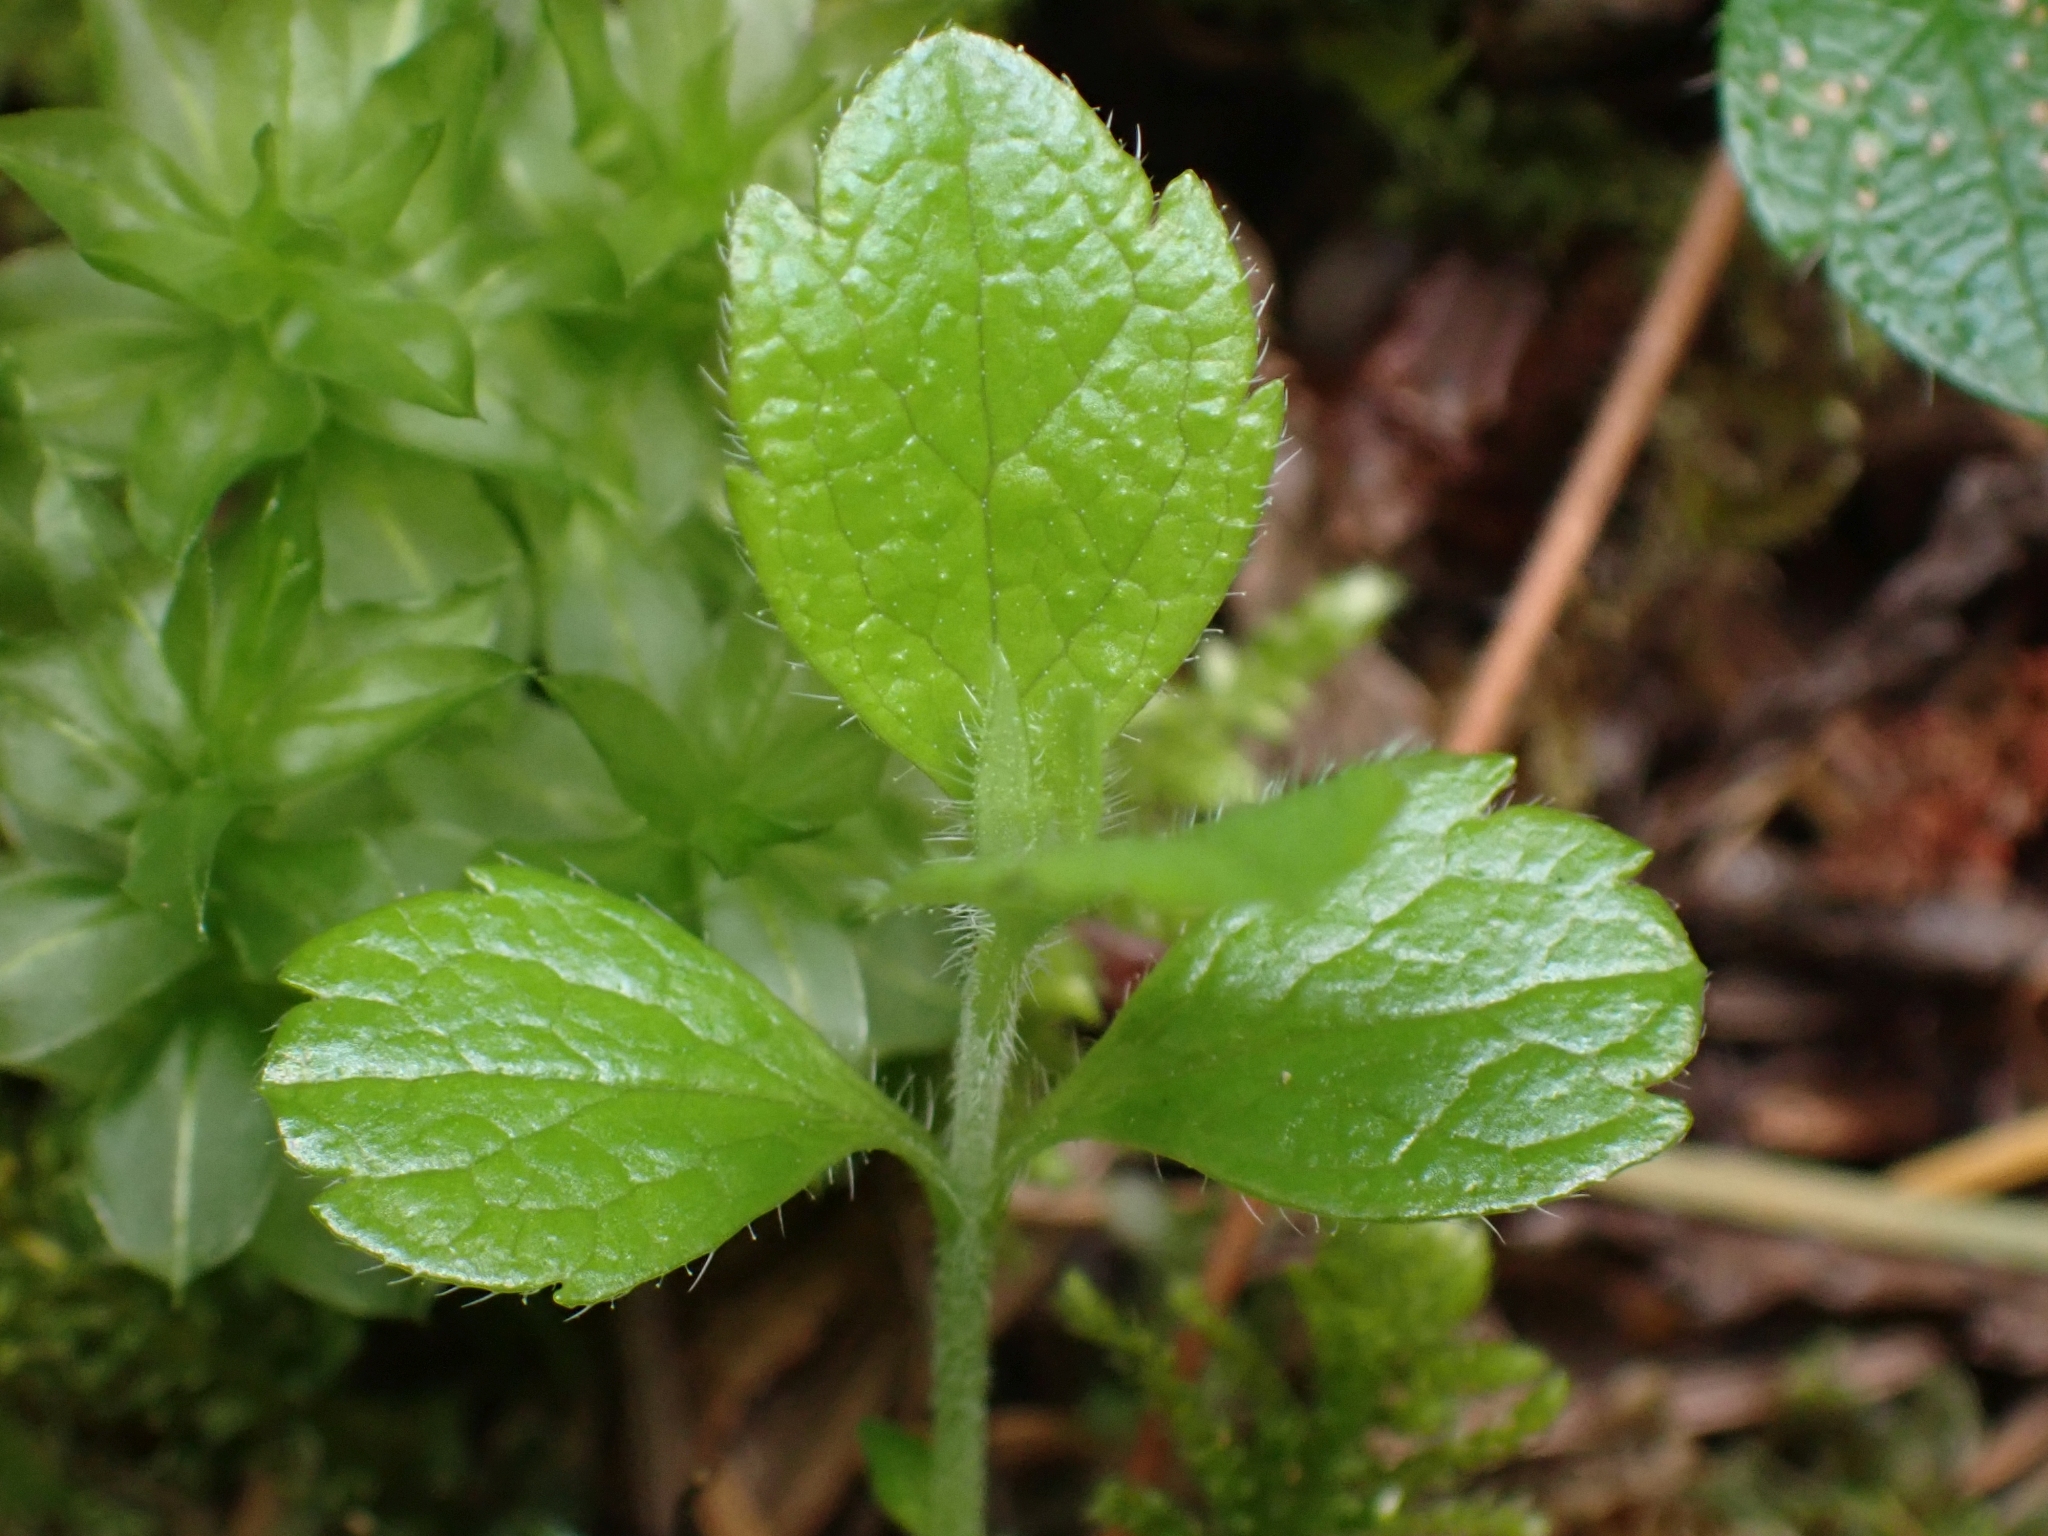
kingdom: Plantae
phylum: Tracheophyta
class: Magnoliopsida
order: Dipsacales
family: Caprifoliaceae
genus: Linnaea
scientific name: Linnaea borealis
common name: Twinflower
